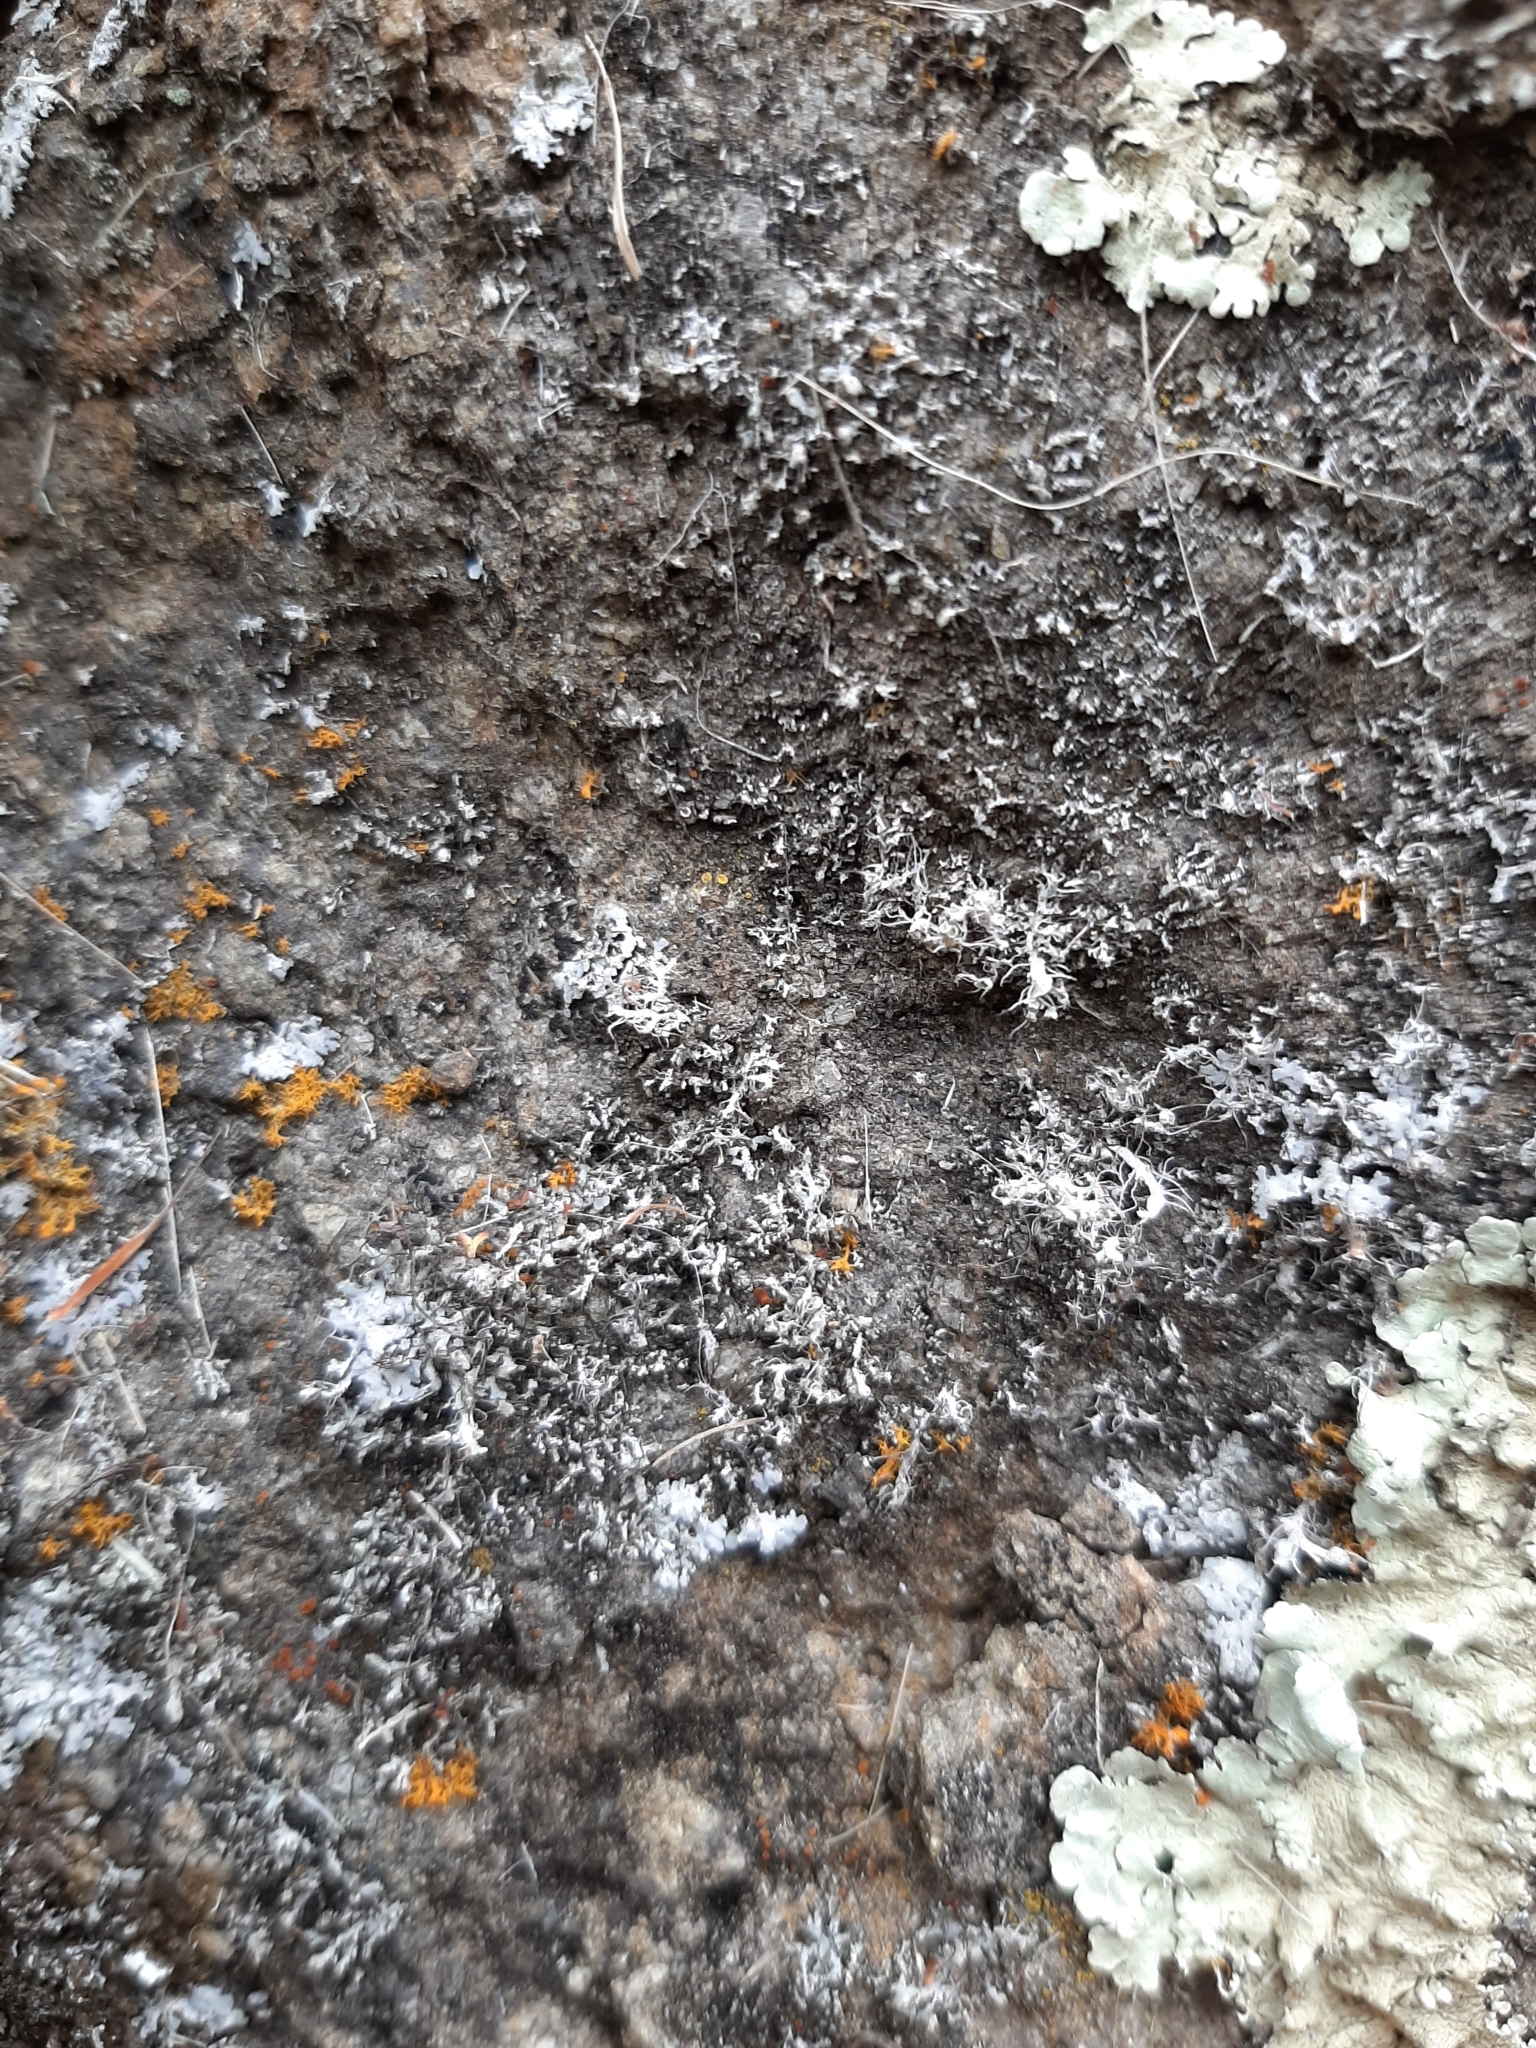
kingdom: Fungi
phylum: Ascomycota
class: Lecanoromycetes
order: Caliciales
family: Physciaceae
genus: Physcia
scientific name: Physcia adscendens
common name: Hooded rosette lichen
